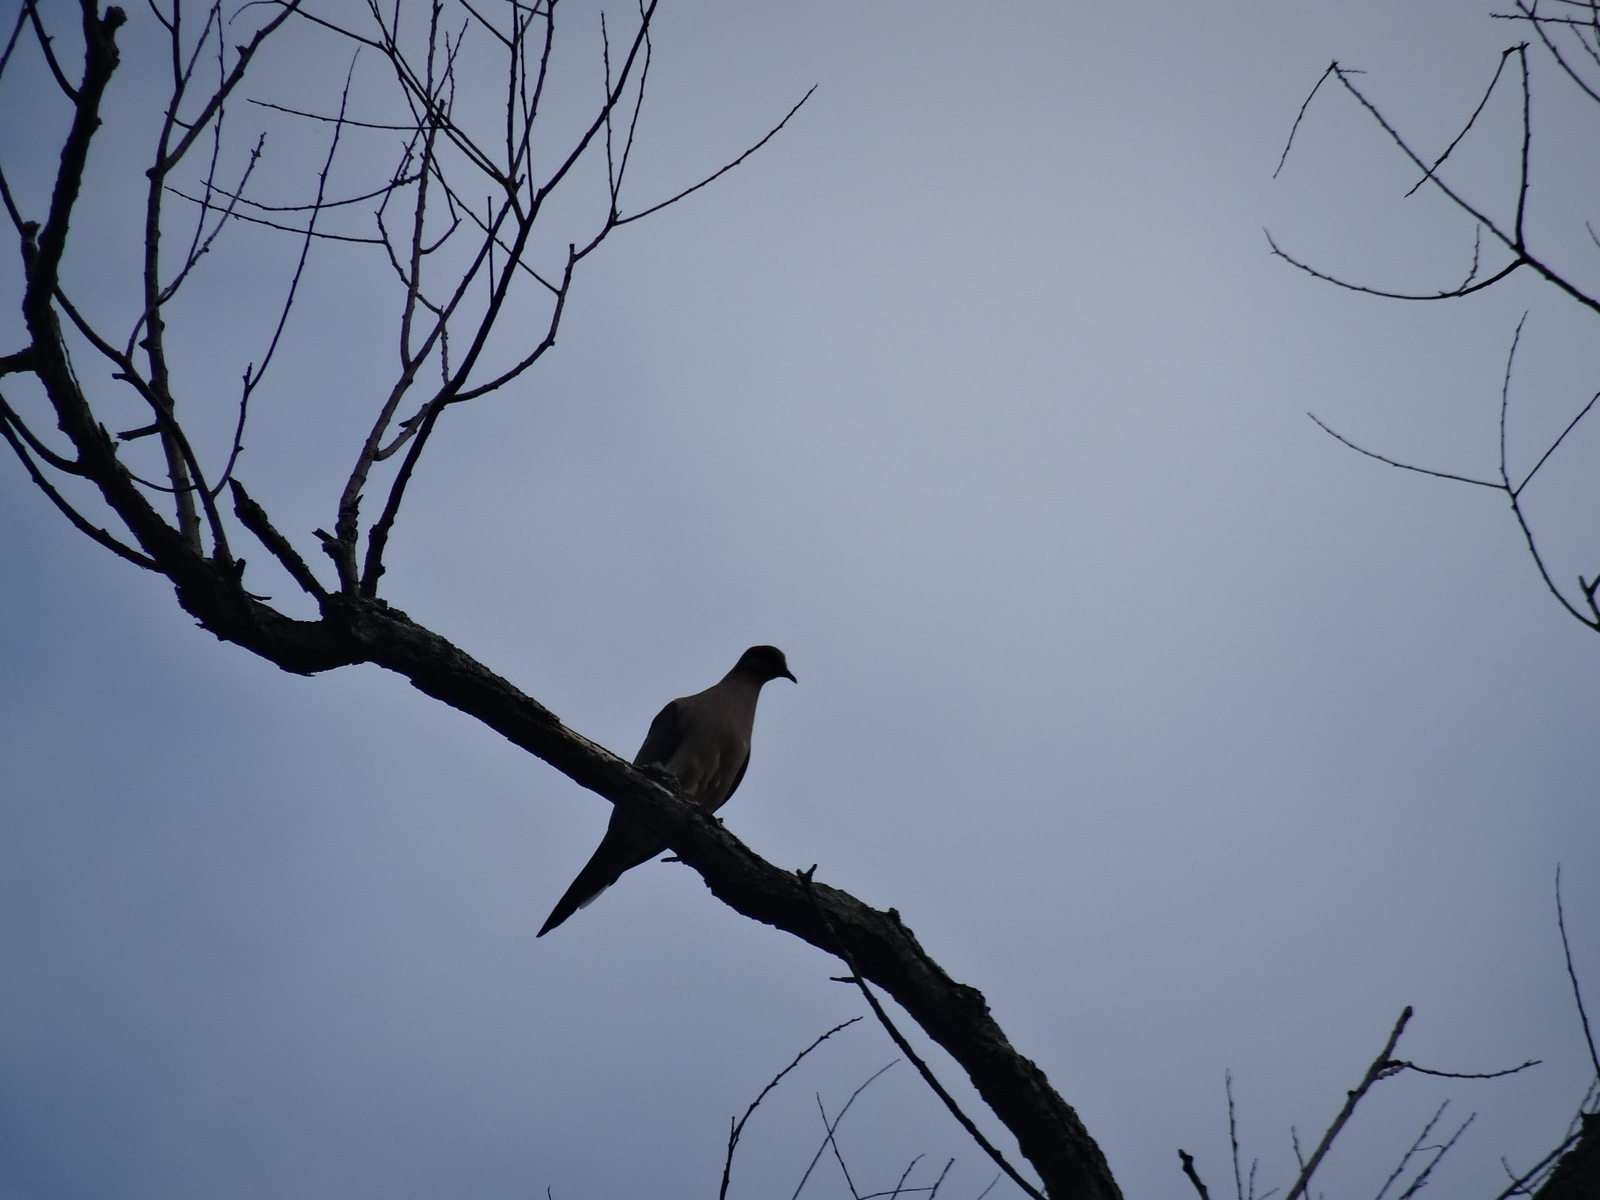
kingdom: Animalia
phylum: Chordata
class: Aves
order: Columbiformes
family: Columbidae
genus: Zenaida
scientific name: Zenaida macroura
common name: Mourning dove
